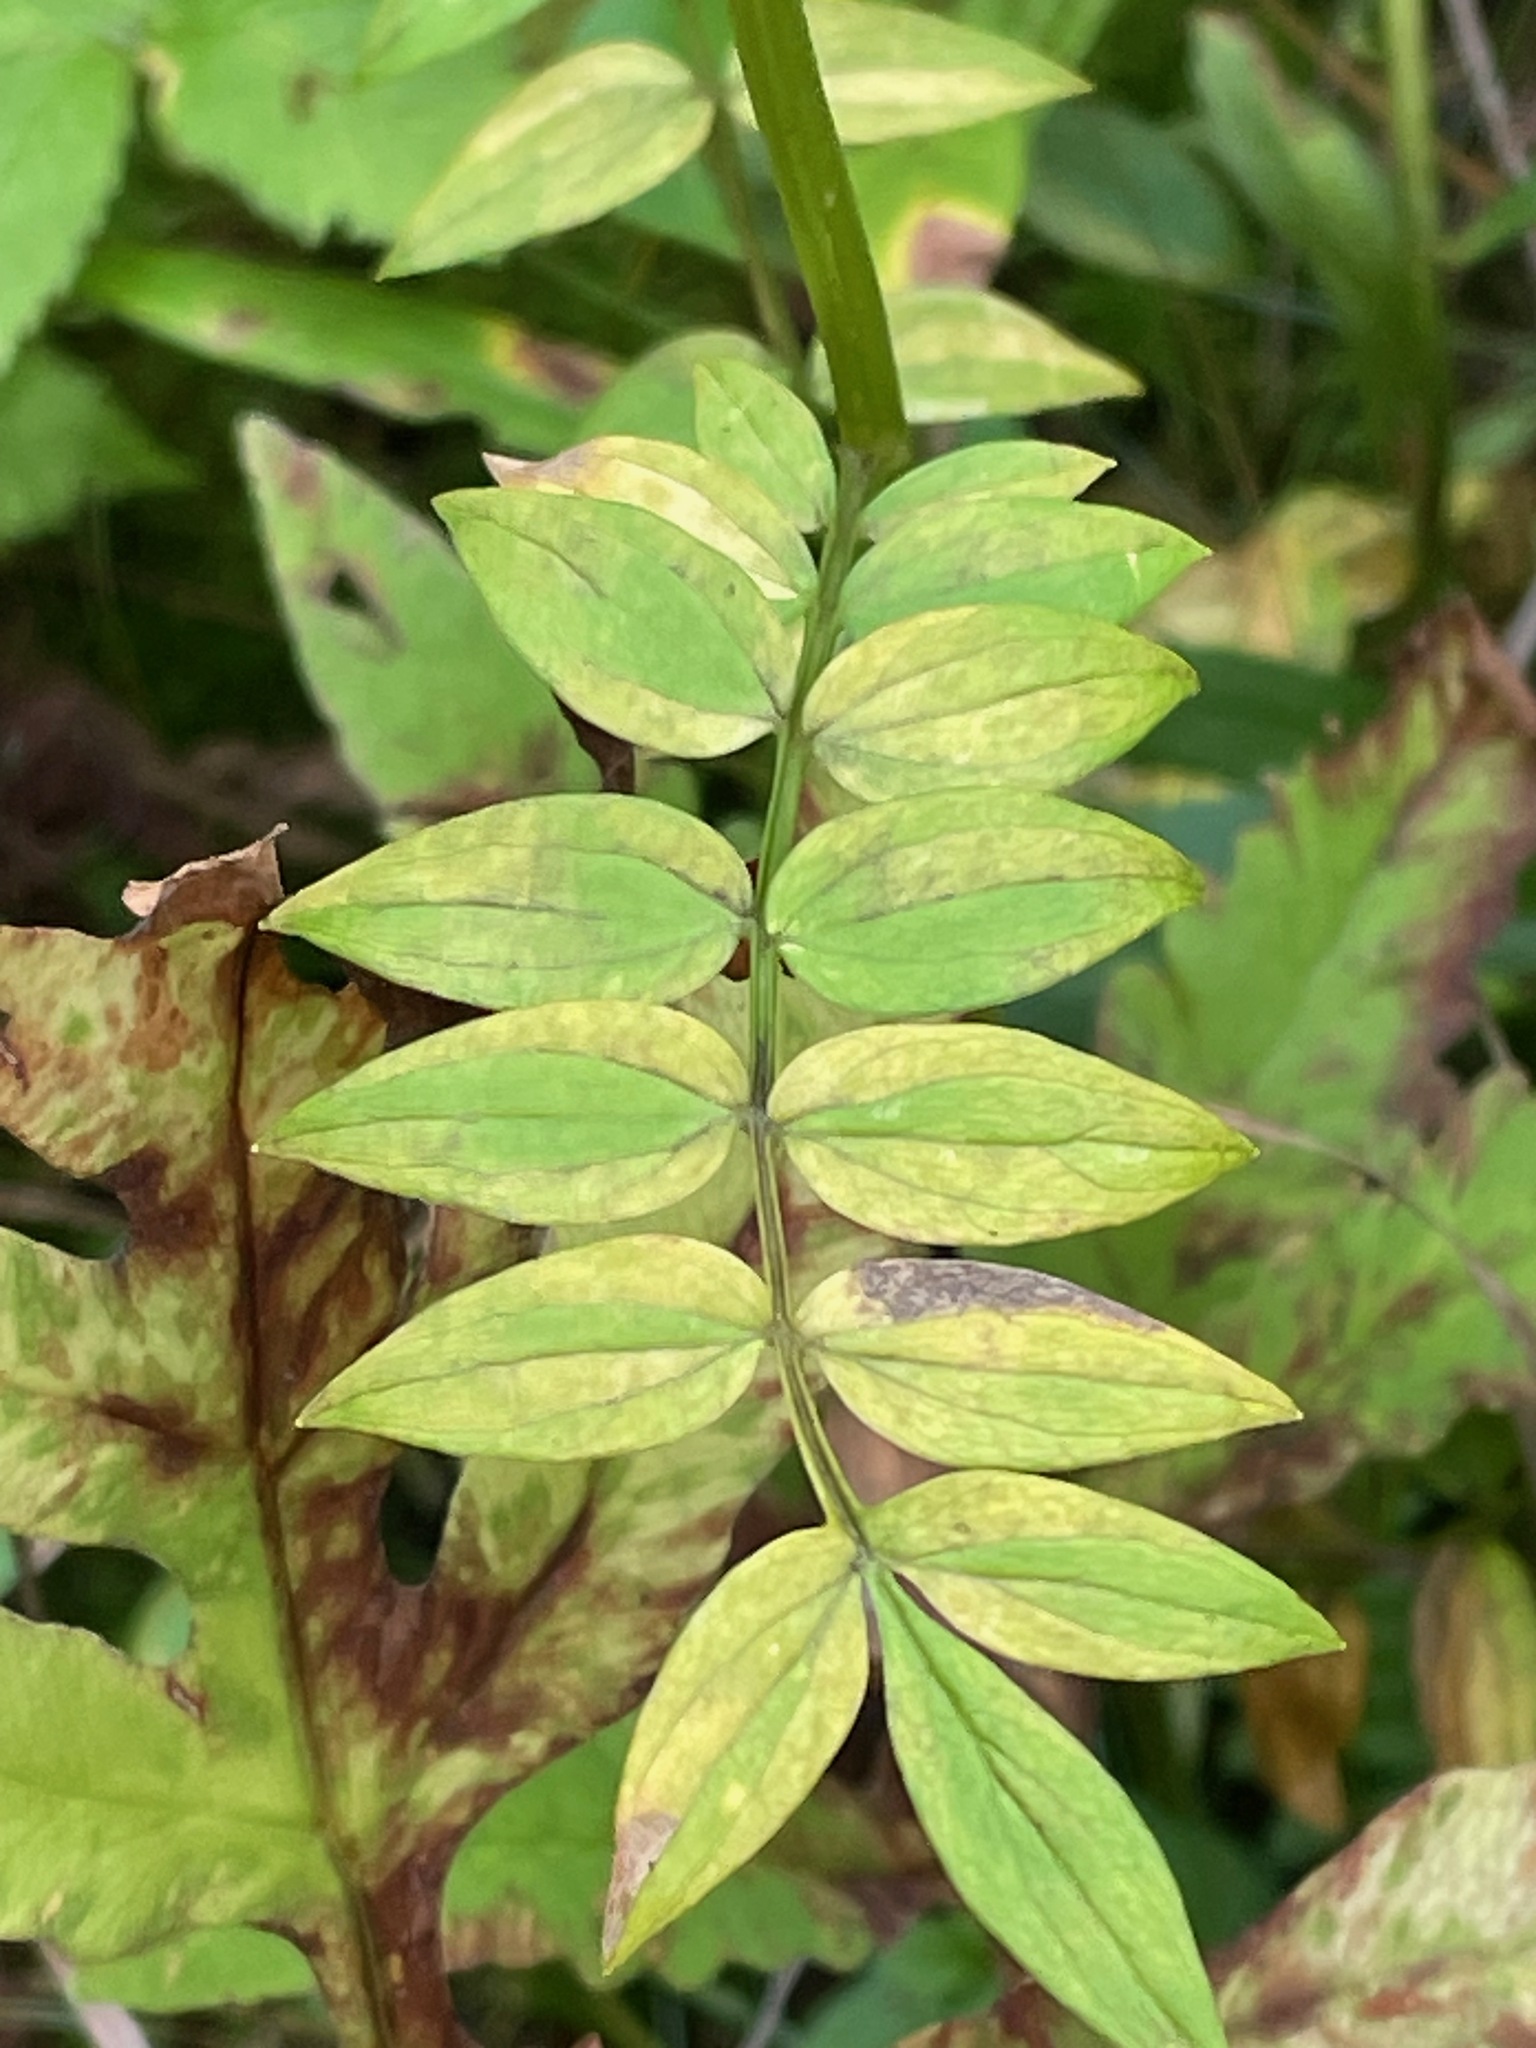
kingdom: Plantae
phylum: Tracheophyta
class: Magnoliopsida
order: Ericales
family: Polemoniaceae
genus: Polemonium
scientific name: Polemonium vanbruntiae
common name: Bog jacob's-ladder
